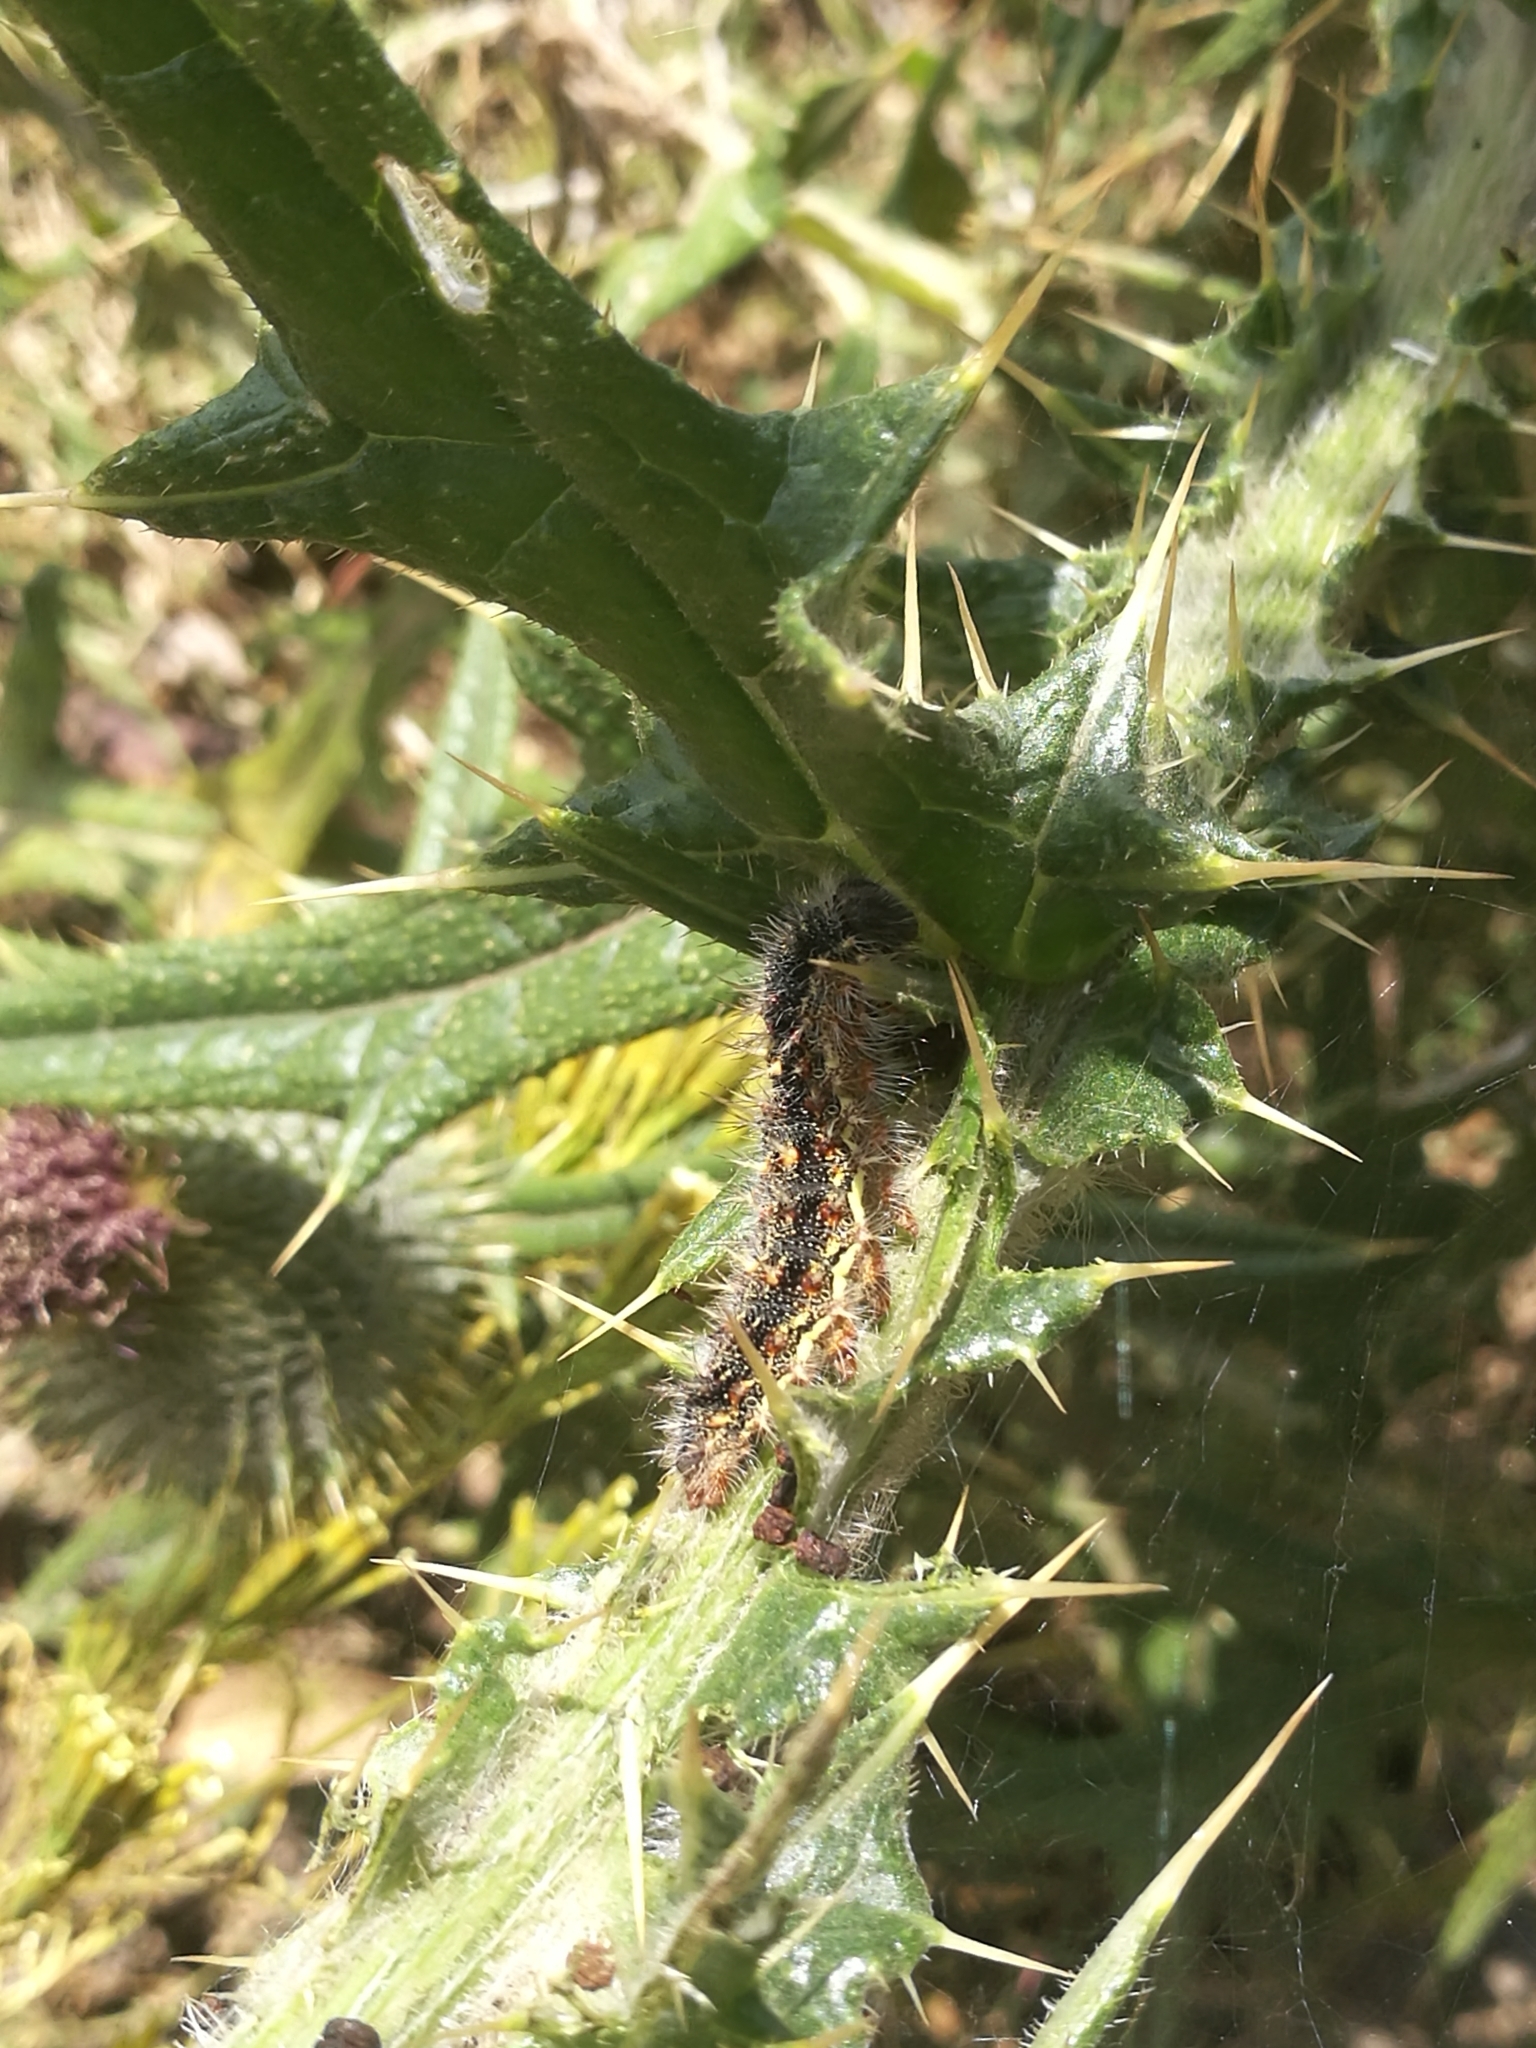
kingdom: Animalia
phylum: Arthropoda
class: Insecta
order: Lepidoptera
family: Nymphalidae
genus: Vanessa
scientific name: Vanessa cardui
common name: Painted lady
